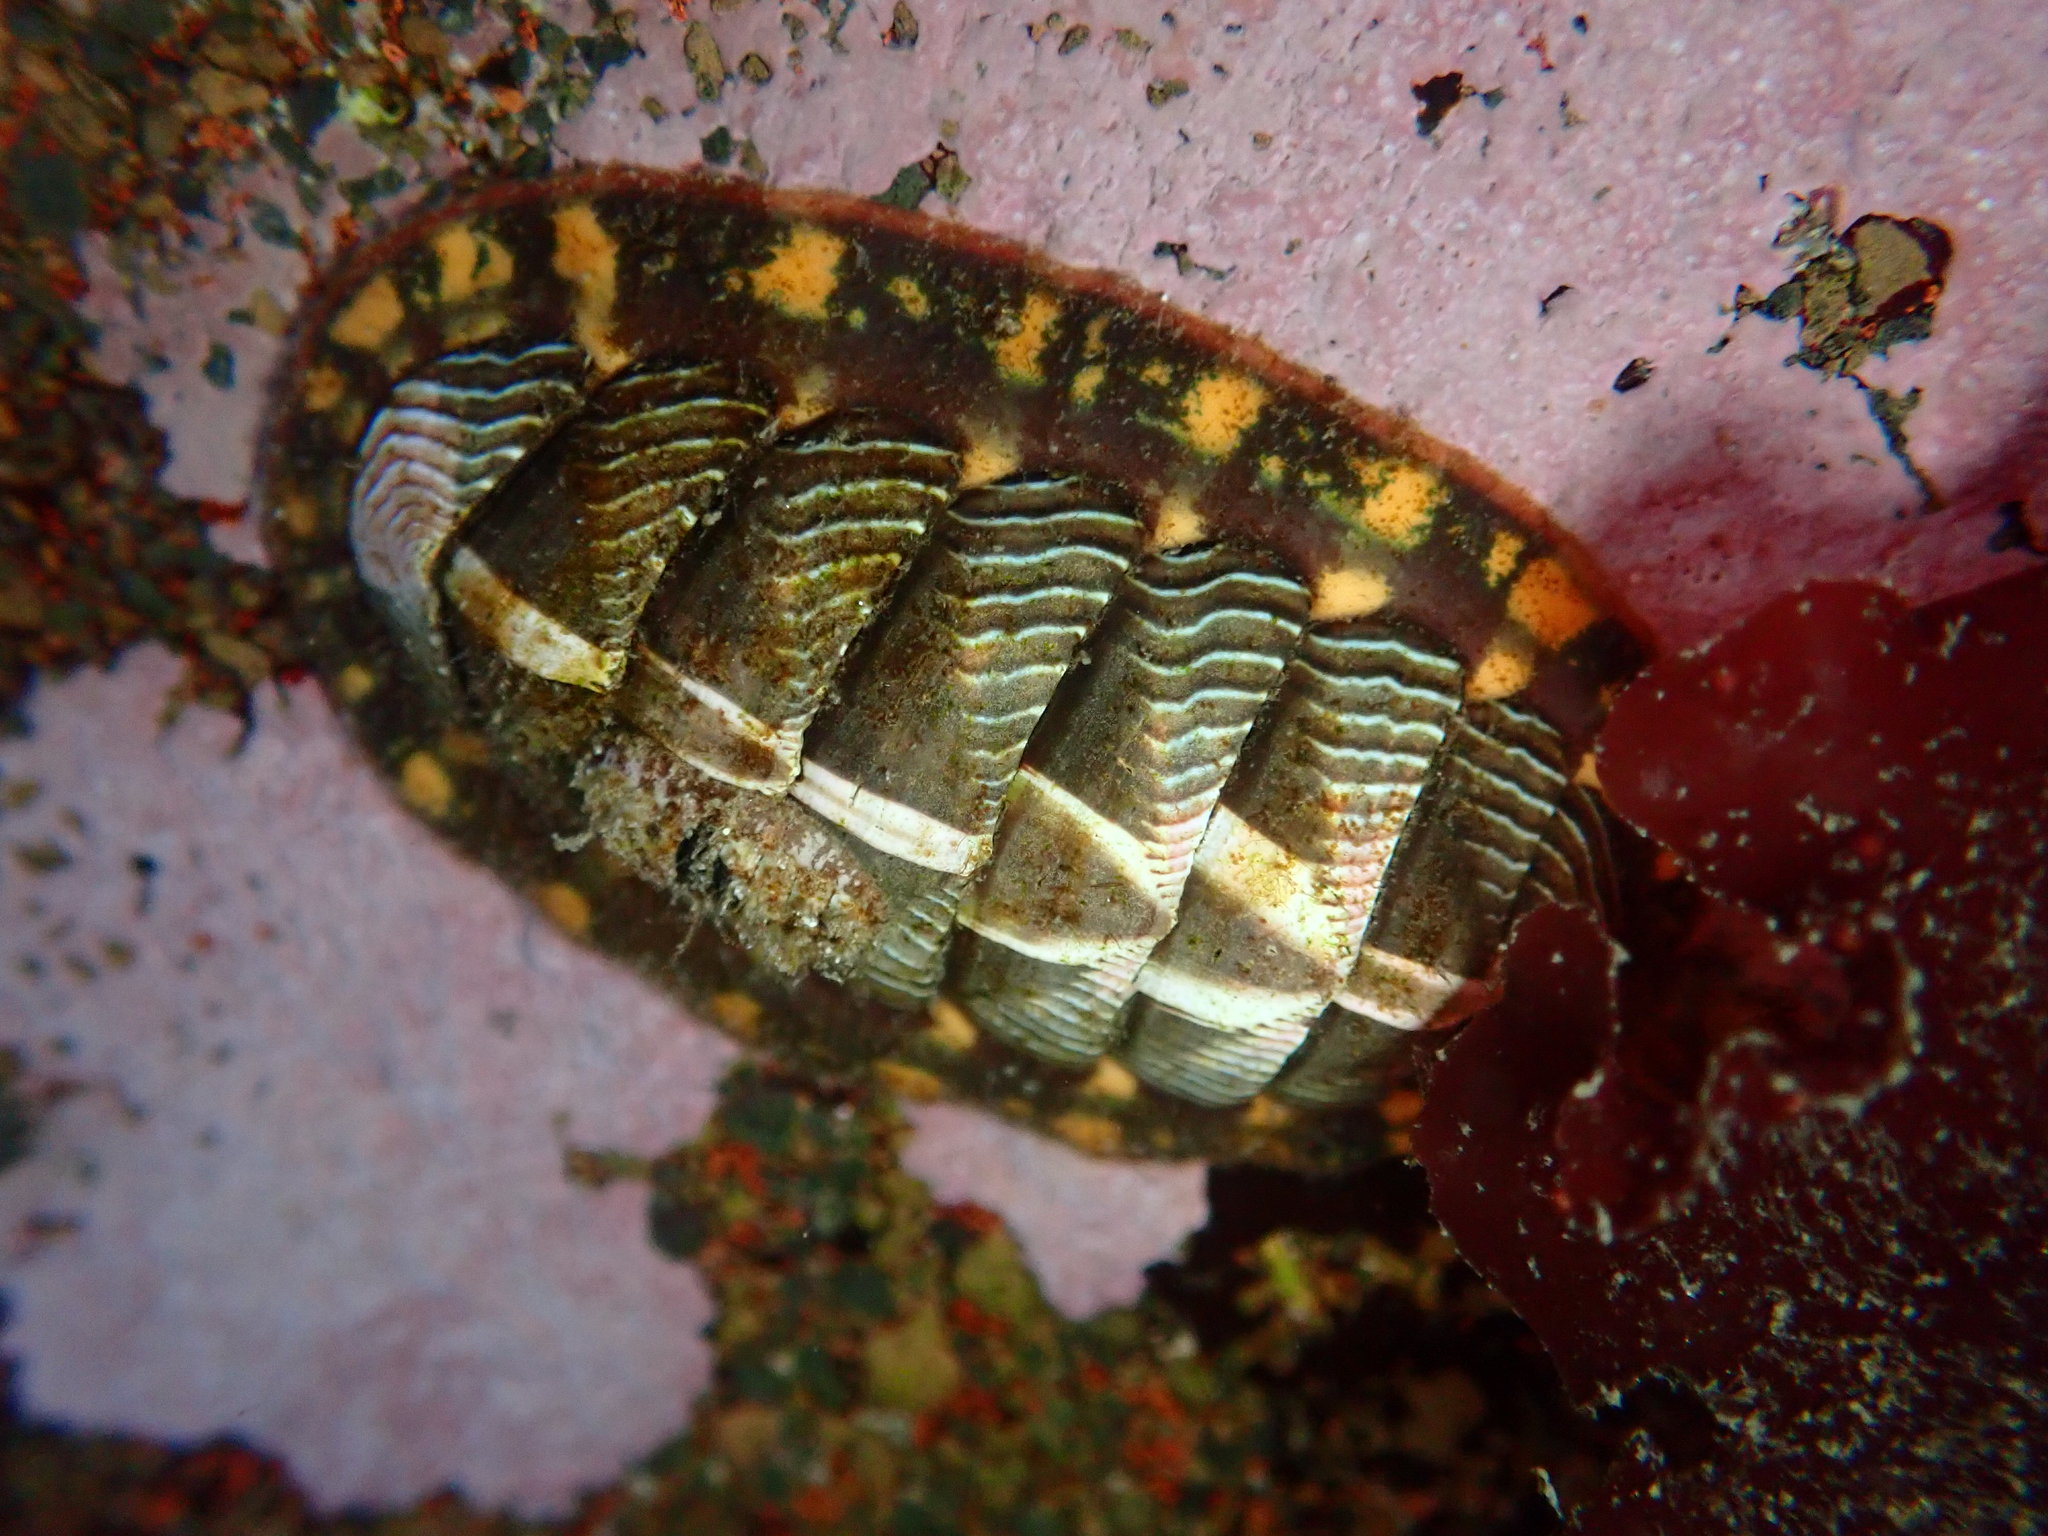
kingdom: Animalia
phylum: Mollusca
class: Polyplacophora
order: Chitonida
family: Tonicellidae
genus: Tonicella
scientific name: Tonicella lineata
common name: Lined chiton
